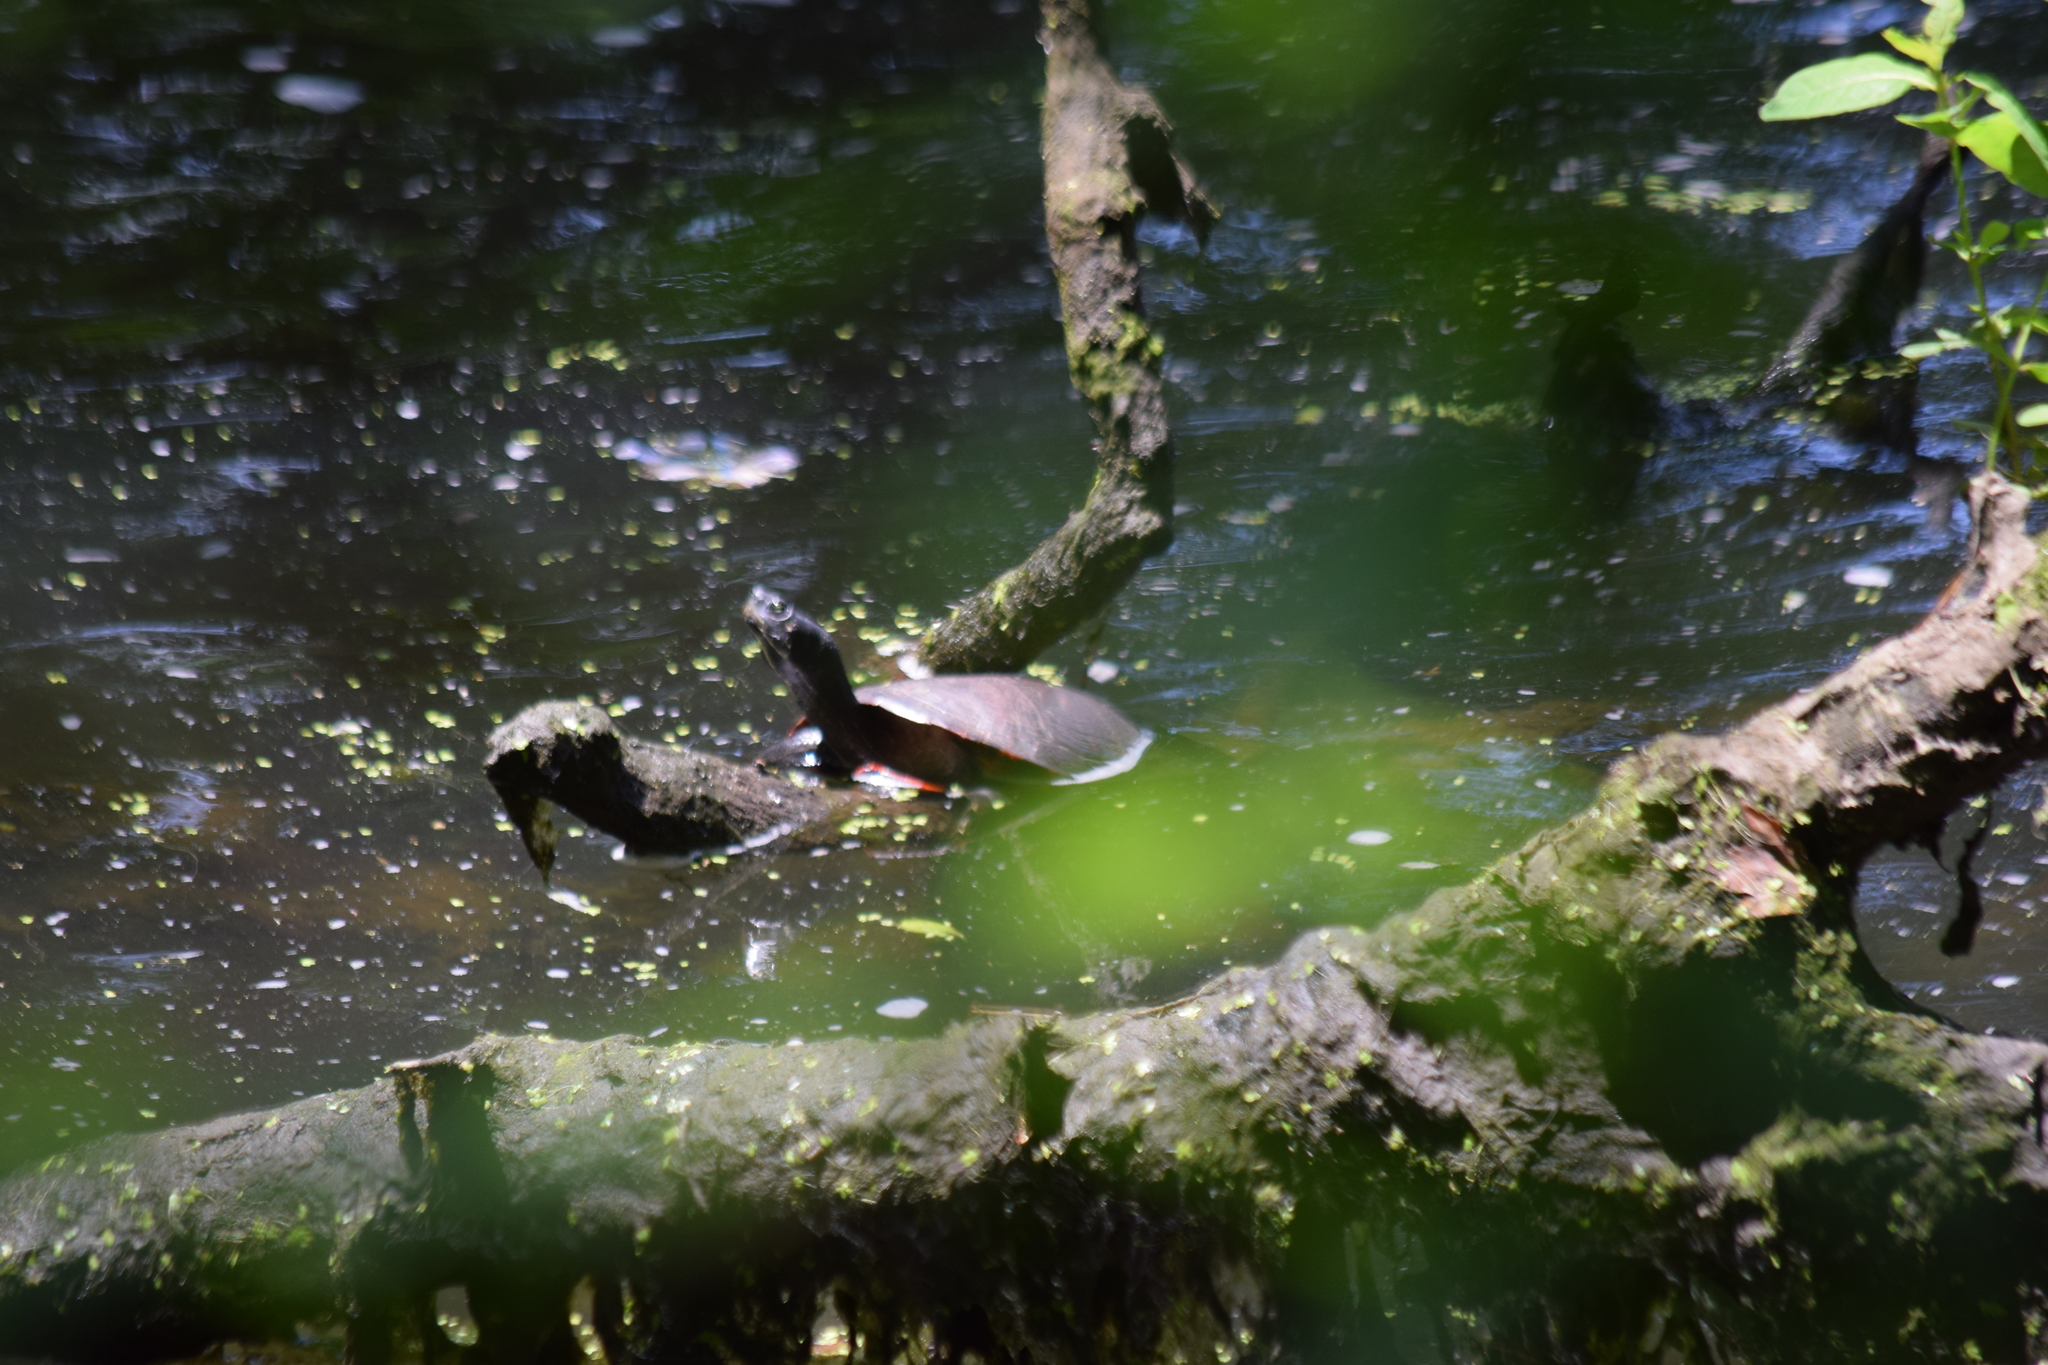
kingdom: Animalia
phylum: Chordata
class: Testudines
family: Emydidae
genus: Pseudemys
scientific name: Pseudemys rubriventris
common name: American red-bellied turtle
